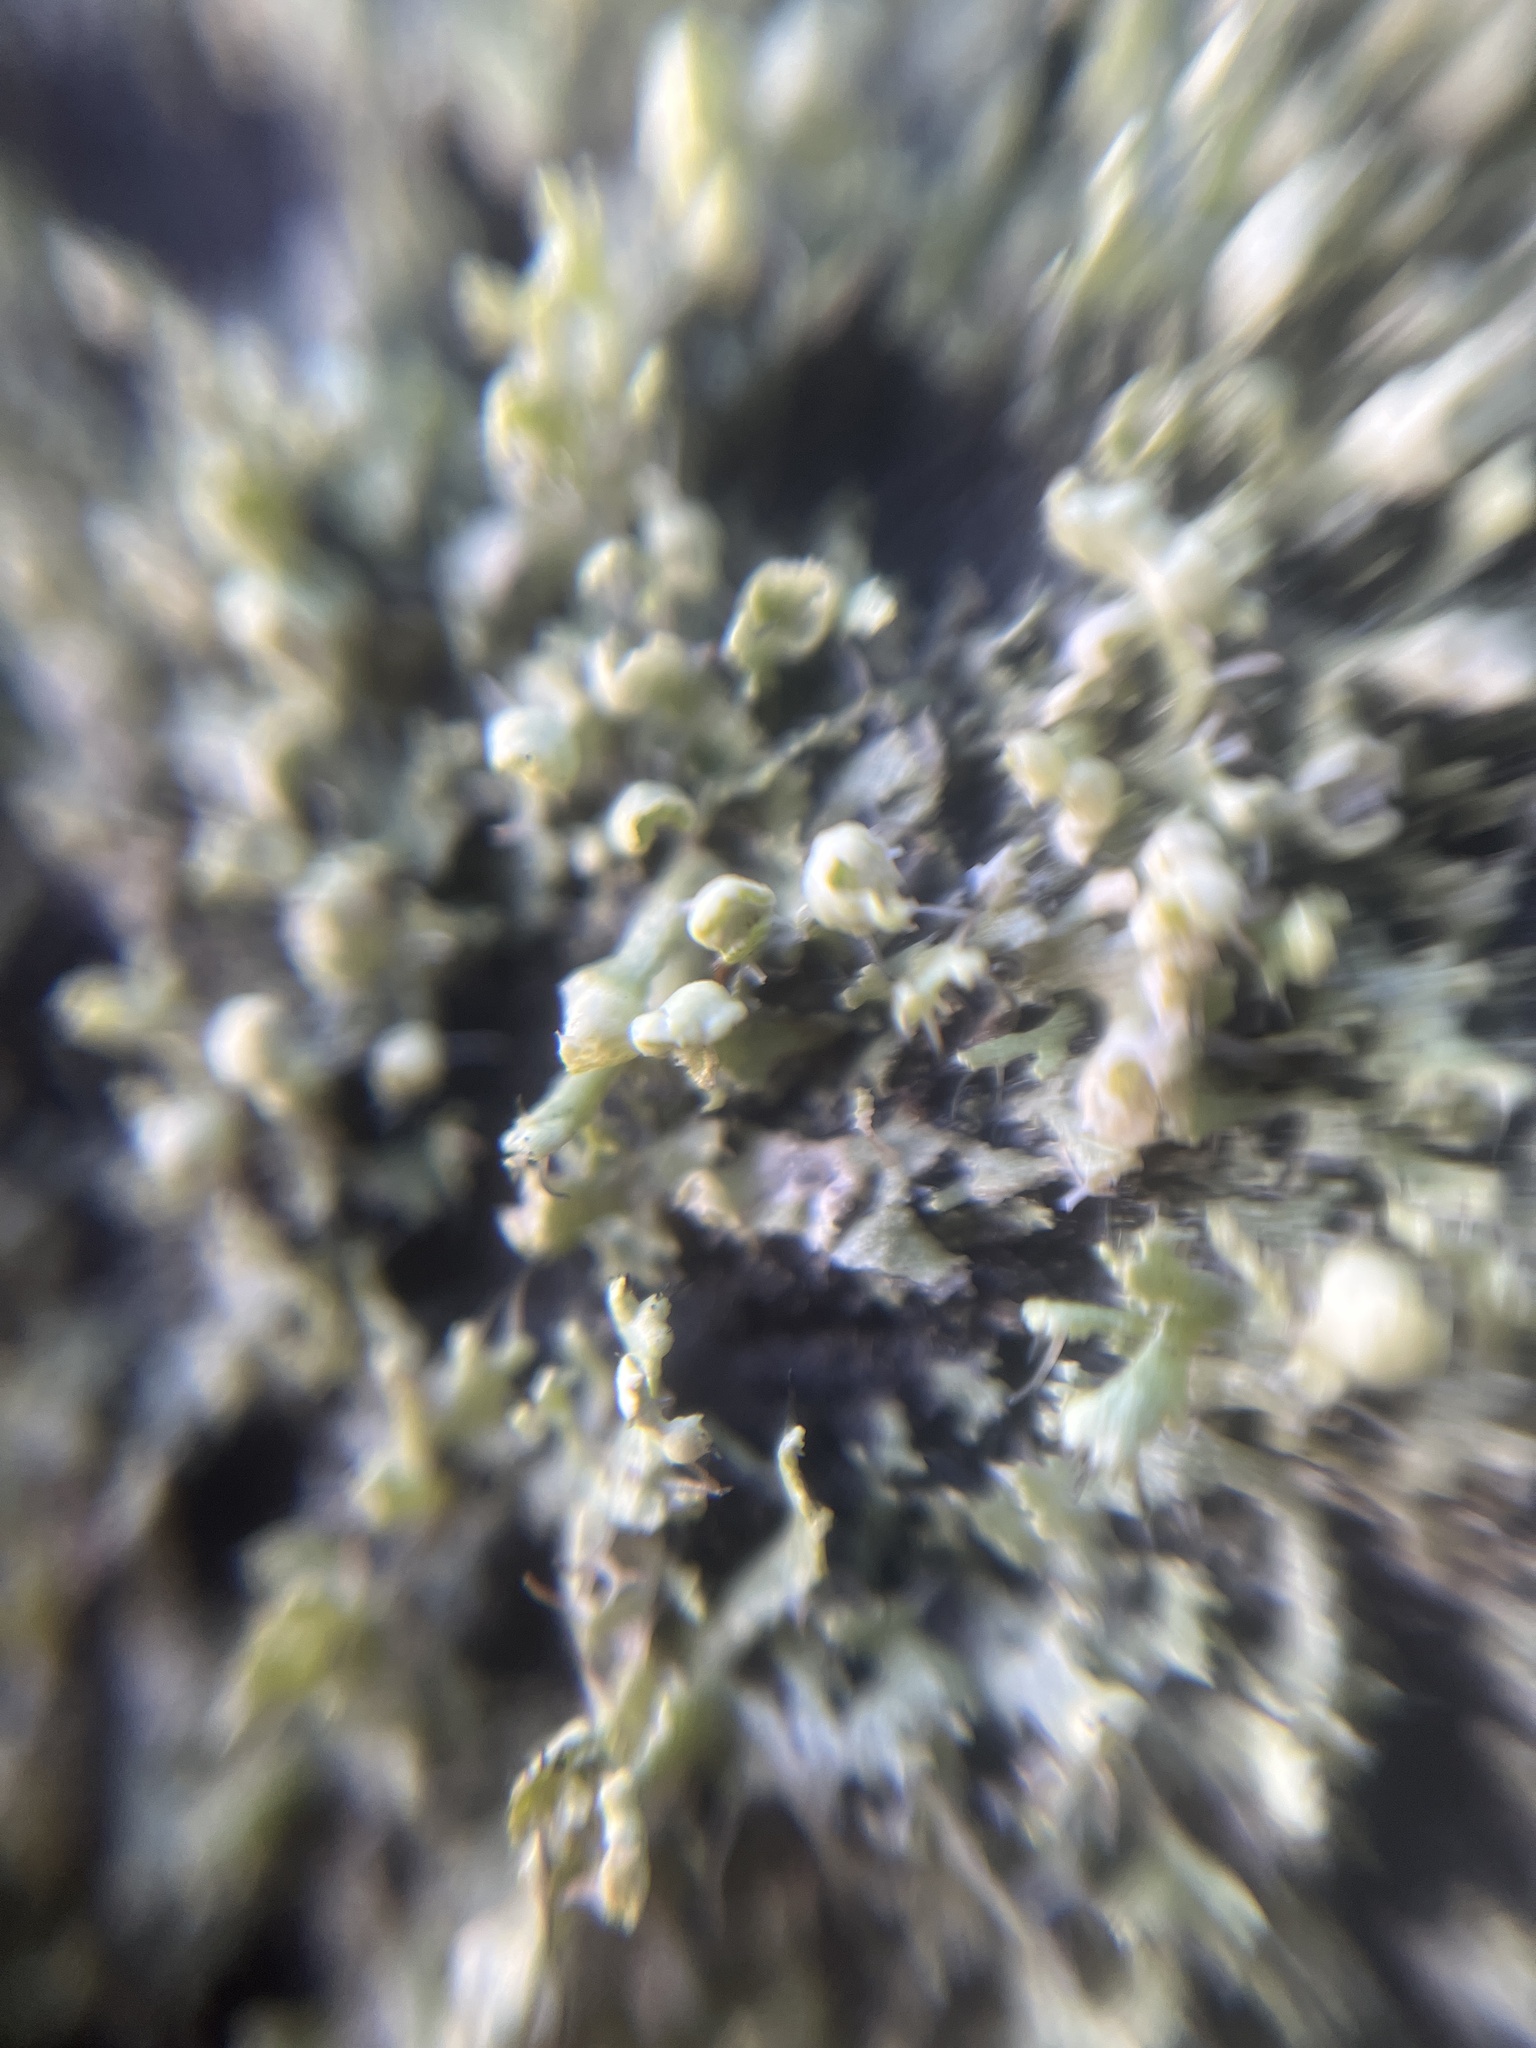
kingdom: Fungi
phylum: Ascomycota
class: Lecanoromycetes
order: Caliciales
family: Physciaceae
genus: Physcia
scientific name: Physcia adscendens
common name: Hooded rosette lichen
